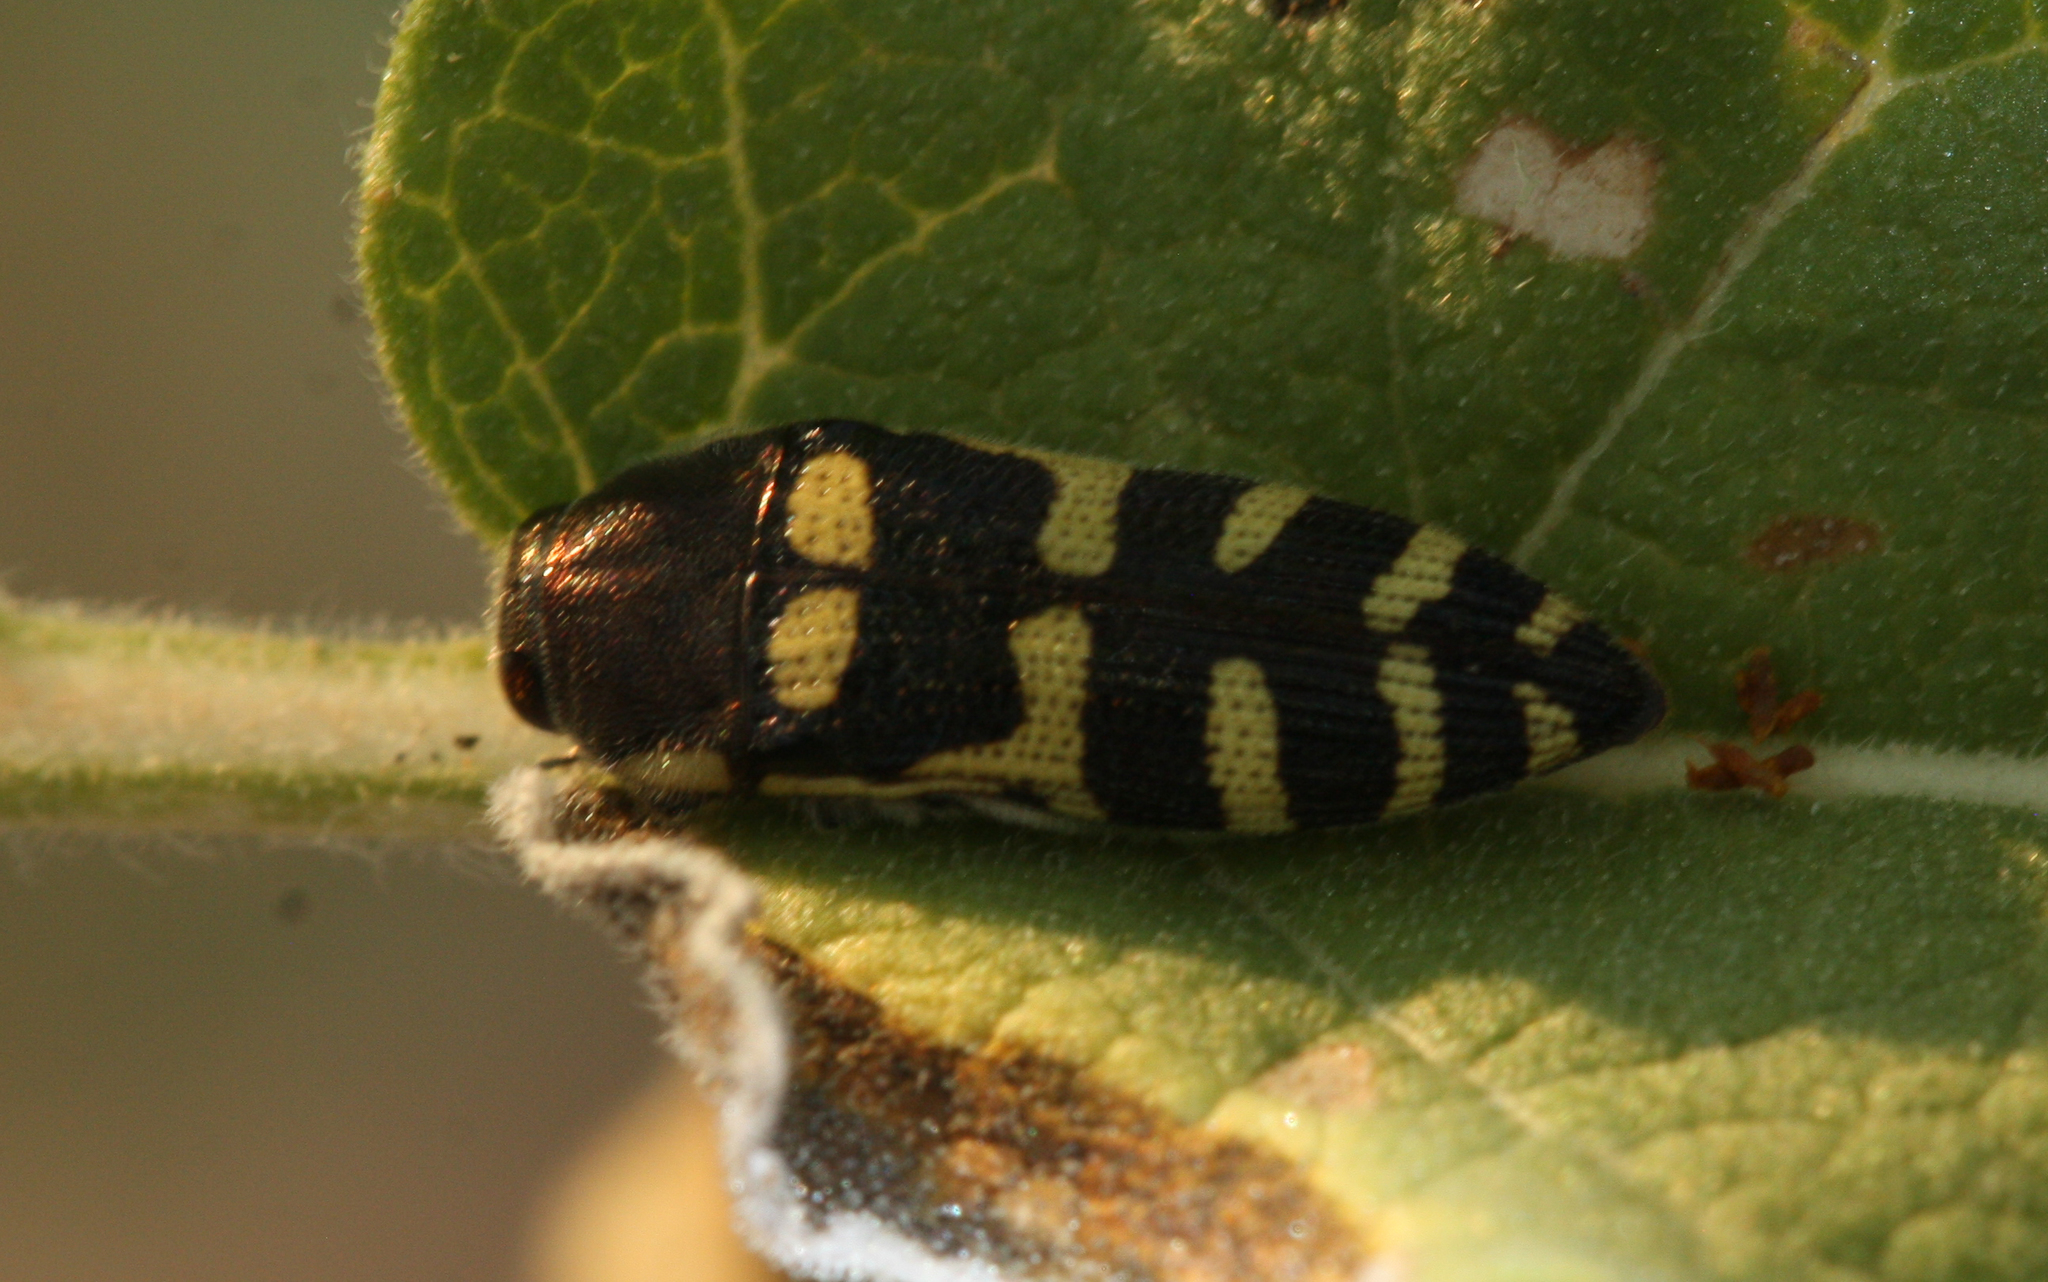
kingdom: Animalia
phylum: Arthropoda
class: Insecta
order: Coleoptera
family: Buprestidae
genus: Acmaeodera
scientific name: Acmaeodera alicia
